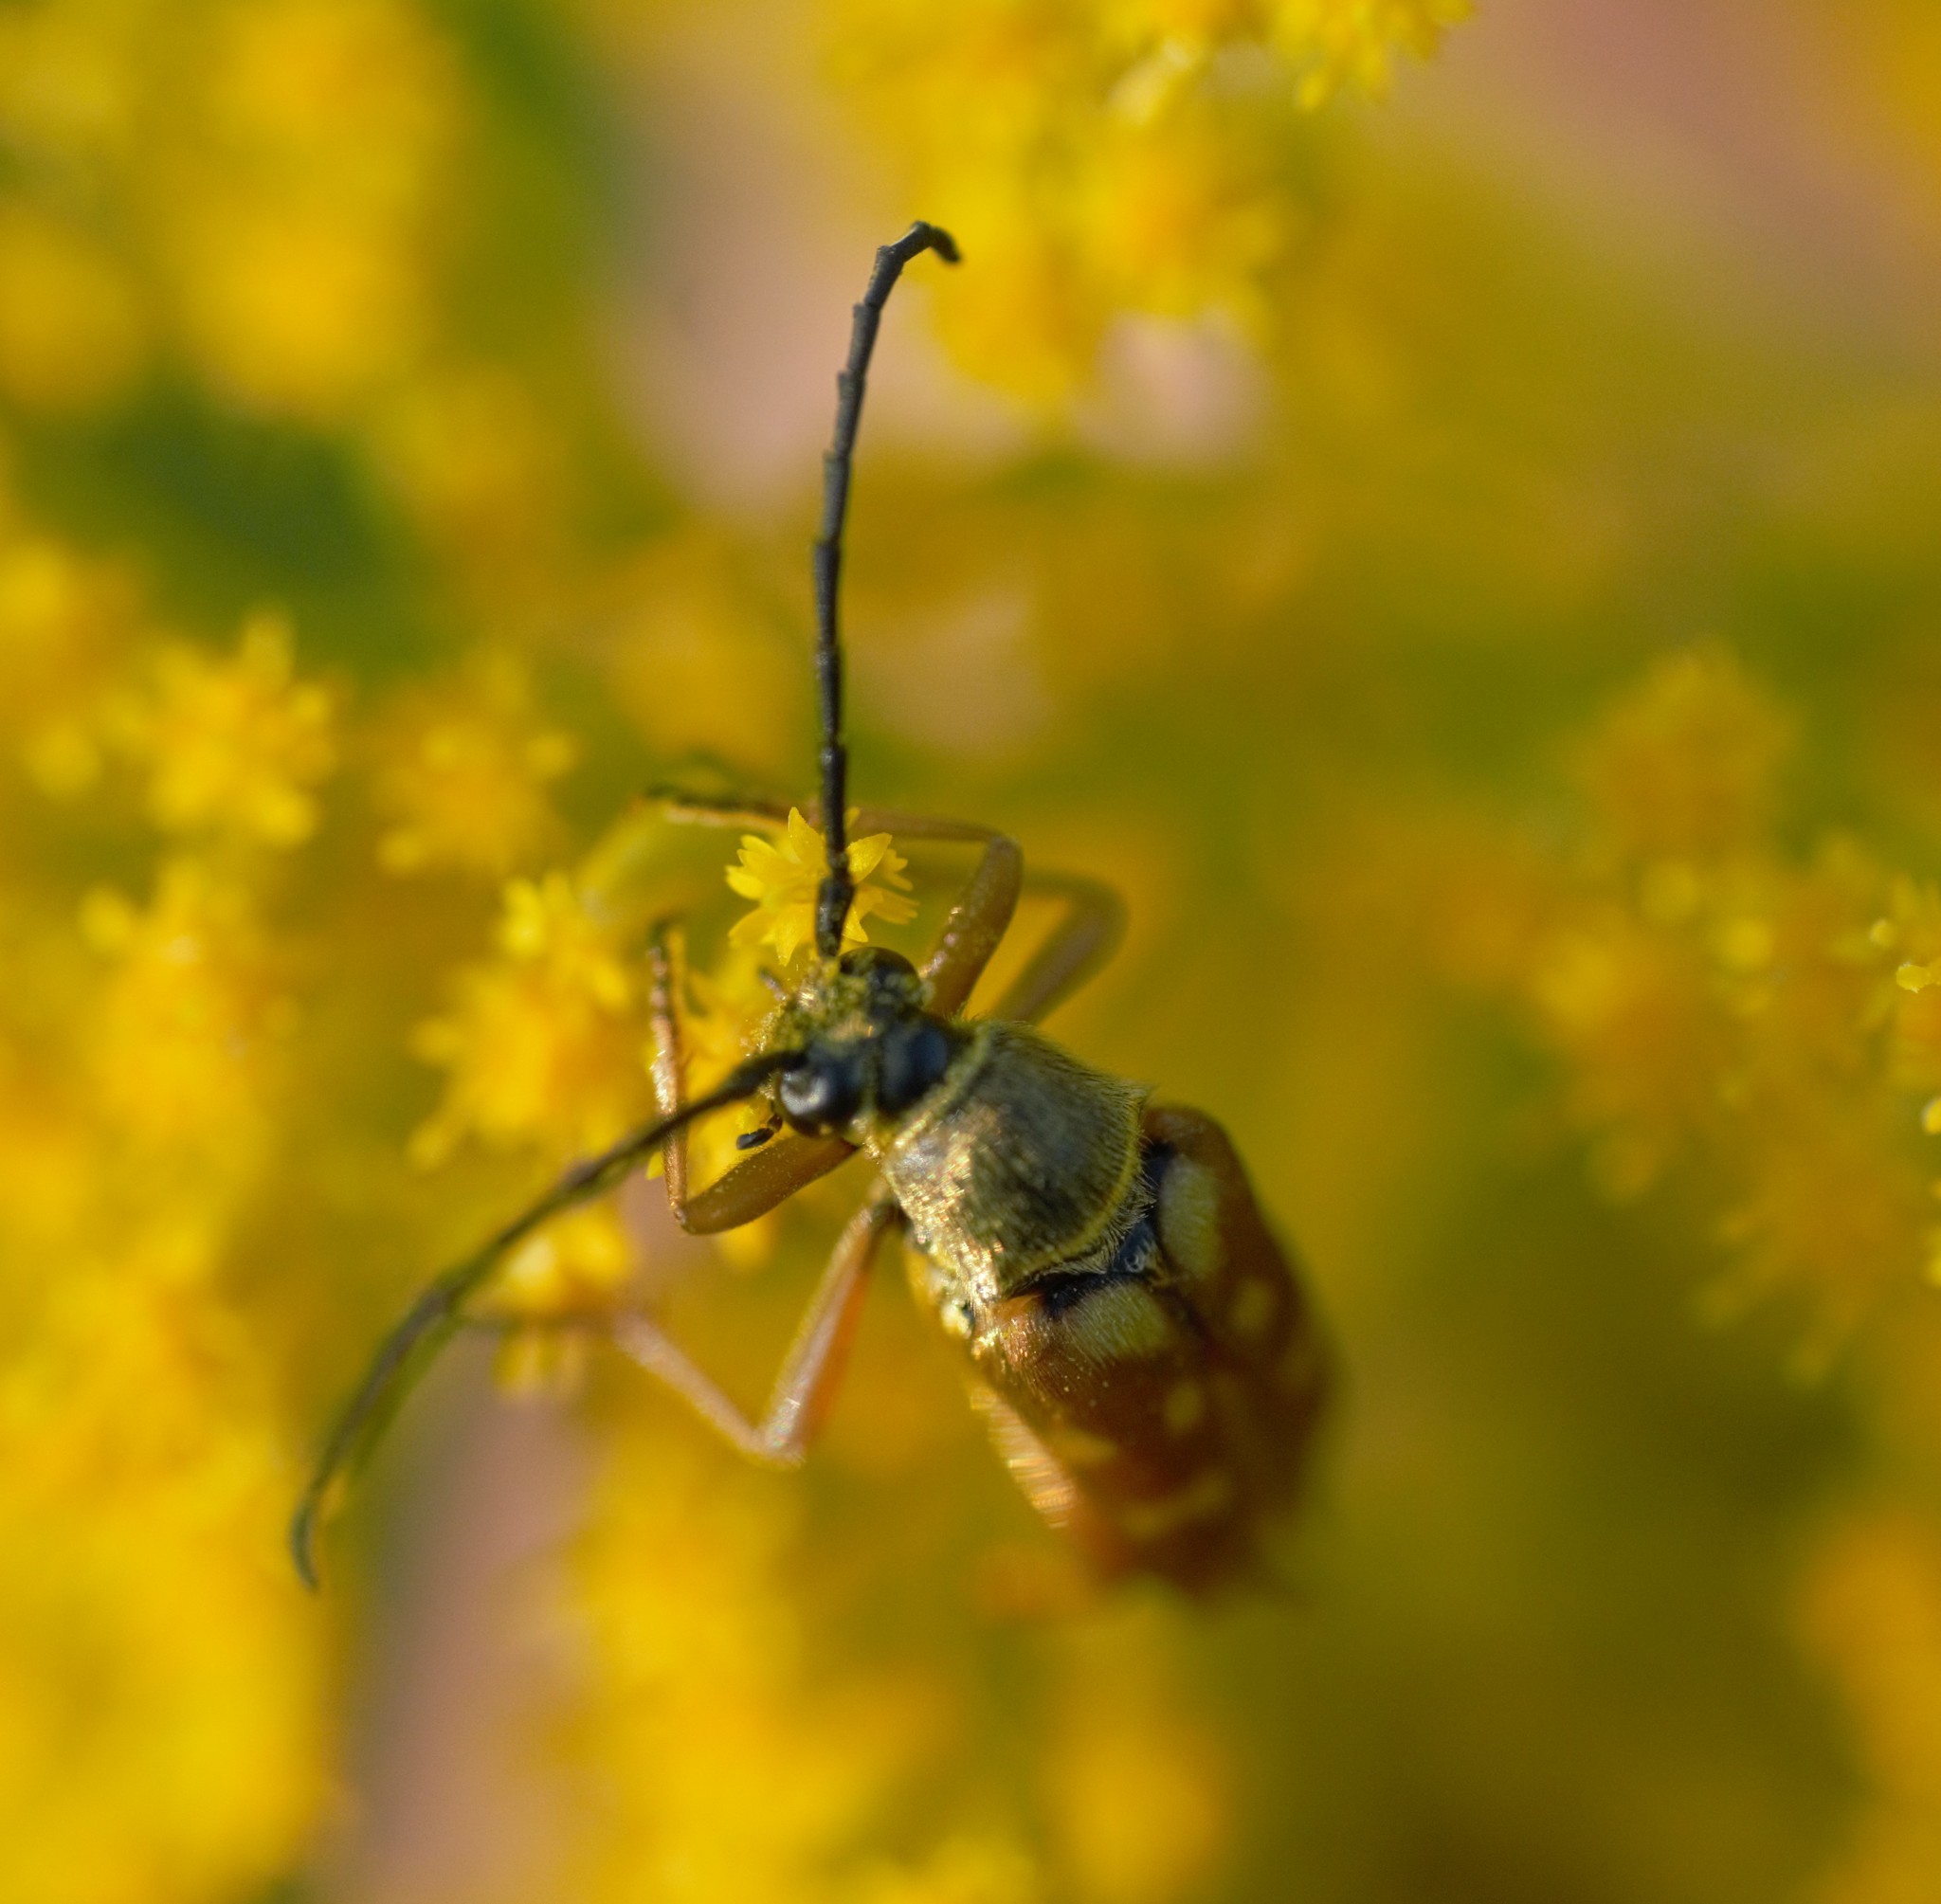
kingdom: Animalia
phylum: Arthropoda
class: Insecta
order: Coleoptera
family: Cerambycidae
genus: Typocerus
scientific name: Typocerus velutinus
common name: Banded longhorn beetle
